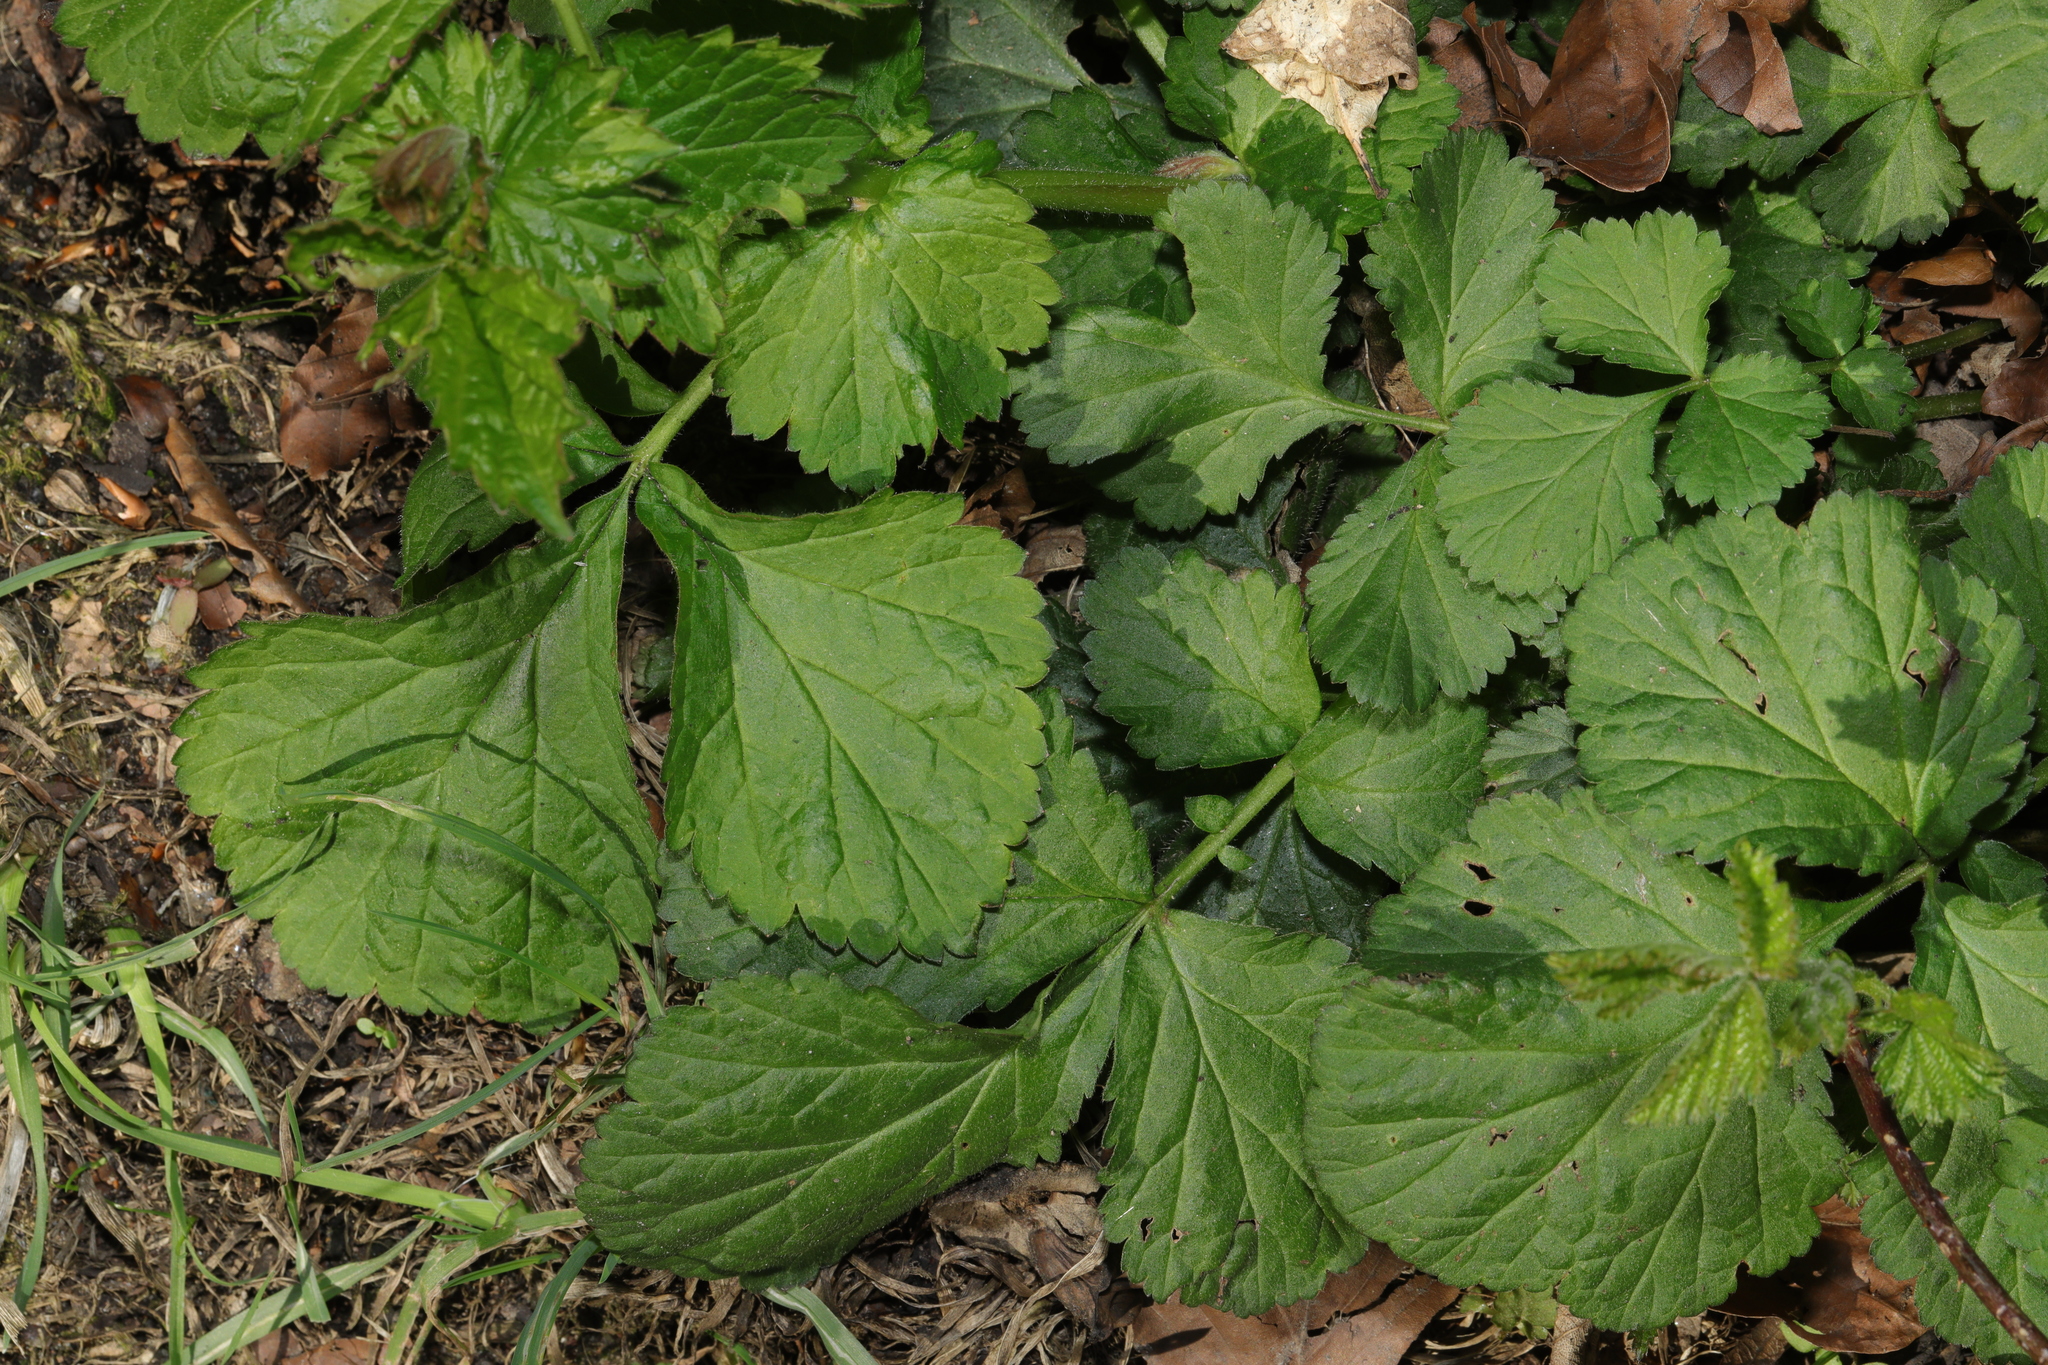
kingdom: Plantae
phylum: Tracheophyta
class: Magnoliopsida
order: Rosales
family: Rosaceae
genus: Geum
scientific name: Geum urbanum
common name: Wood avens
